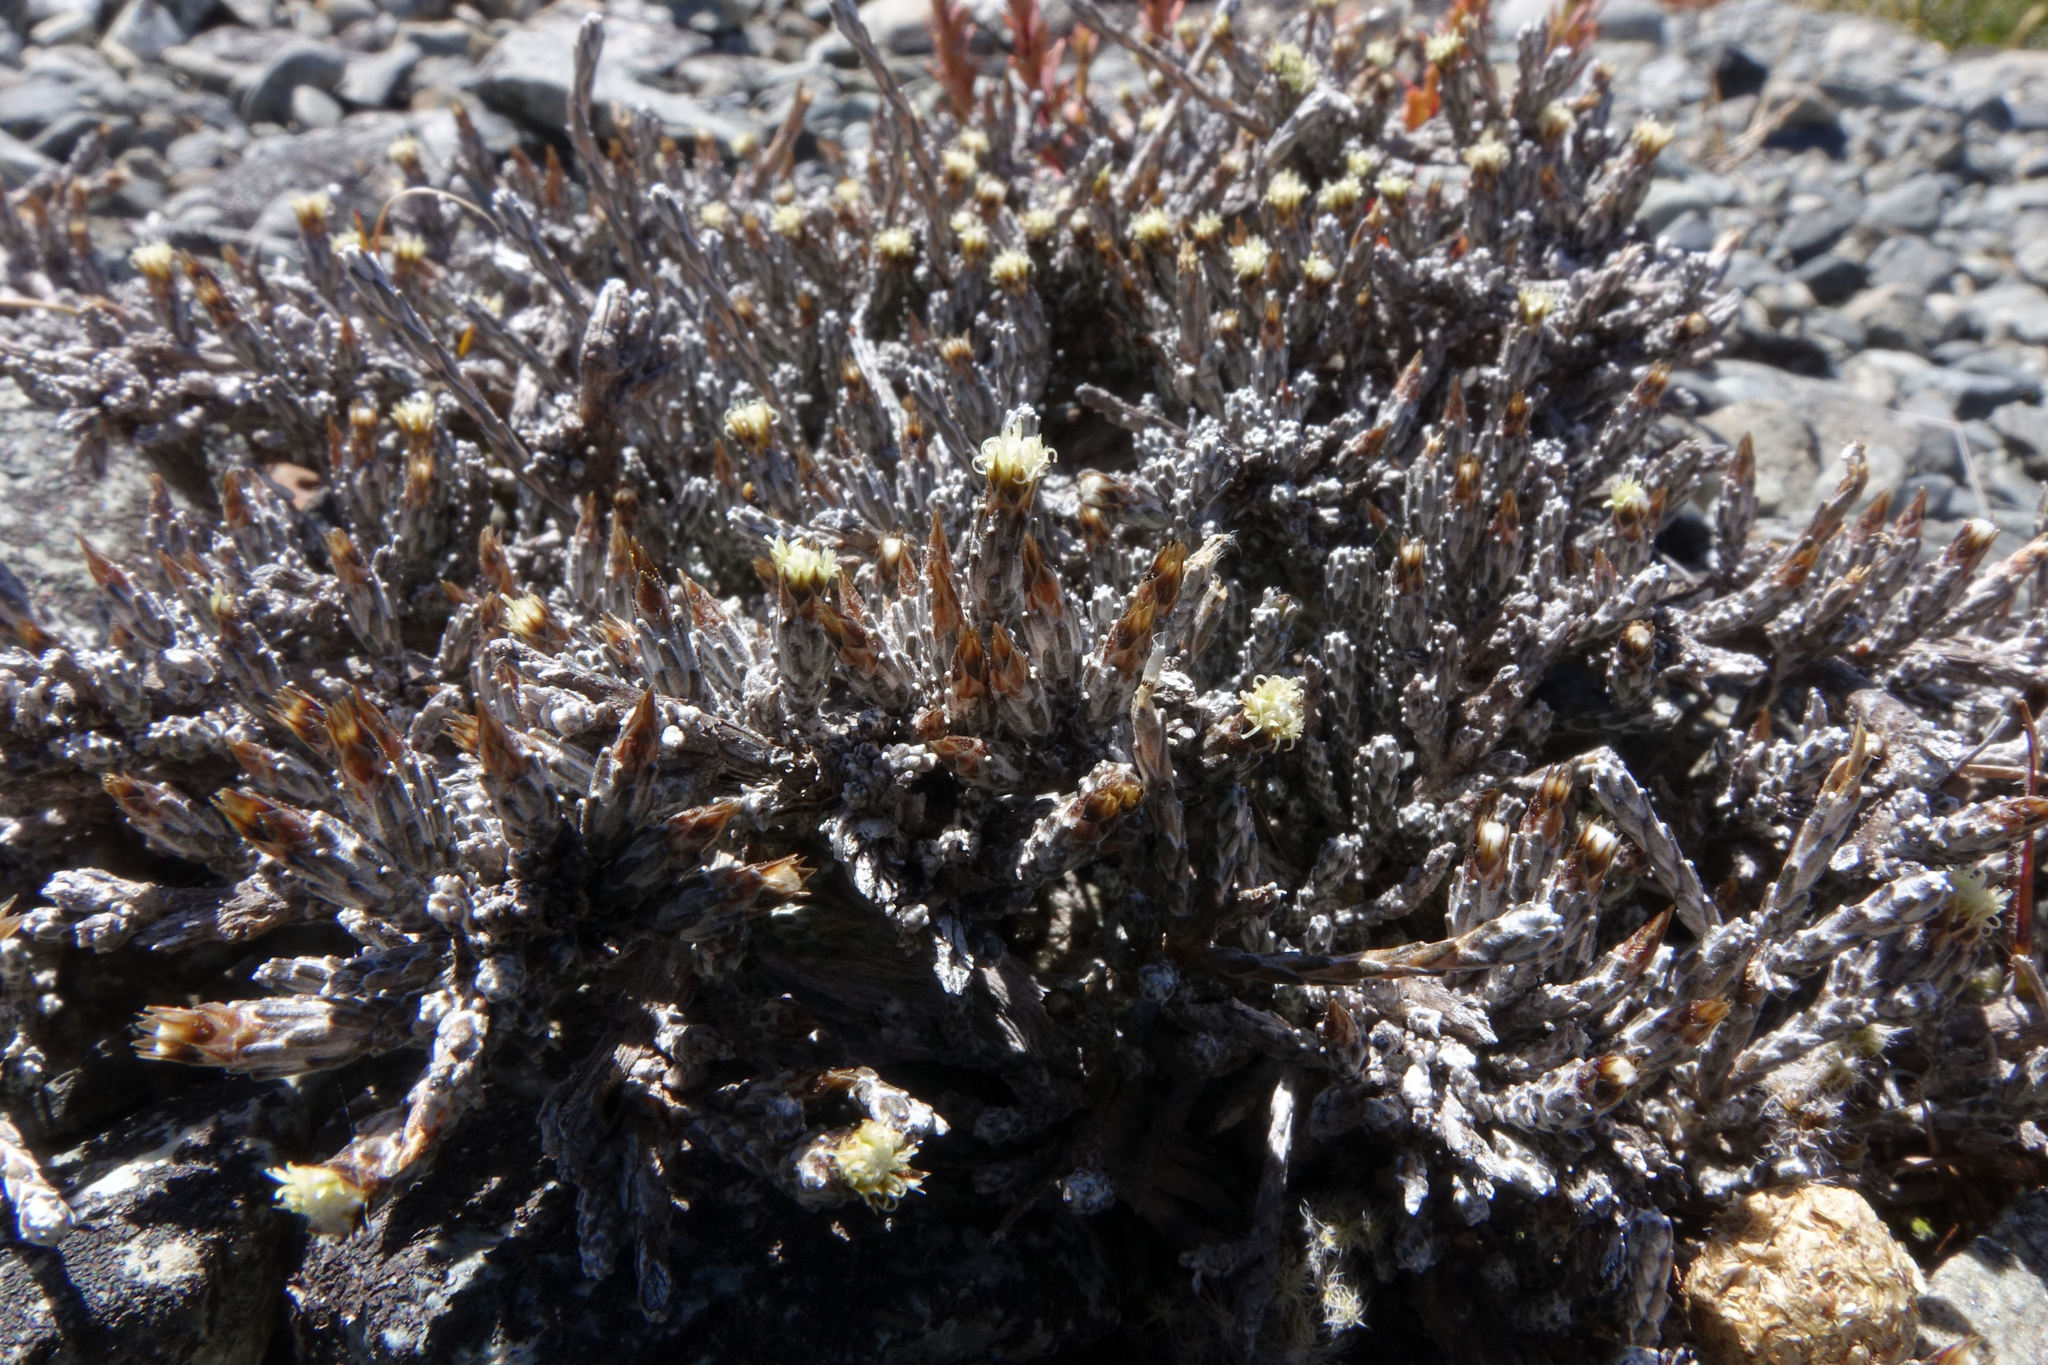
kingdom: Plantae
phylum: Tracheophyta
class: Magnoliopsida
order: Asterales
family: Asteraceae
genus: Ozothamnus
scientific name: Ozothamnus depressus
